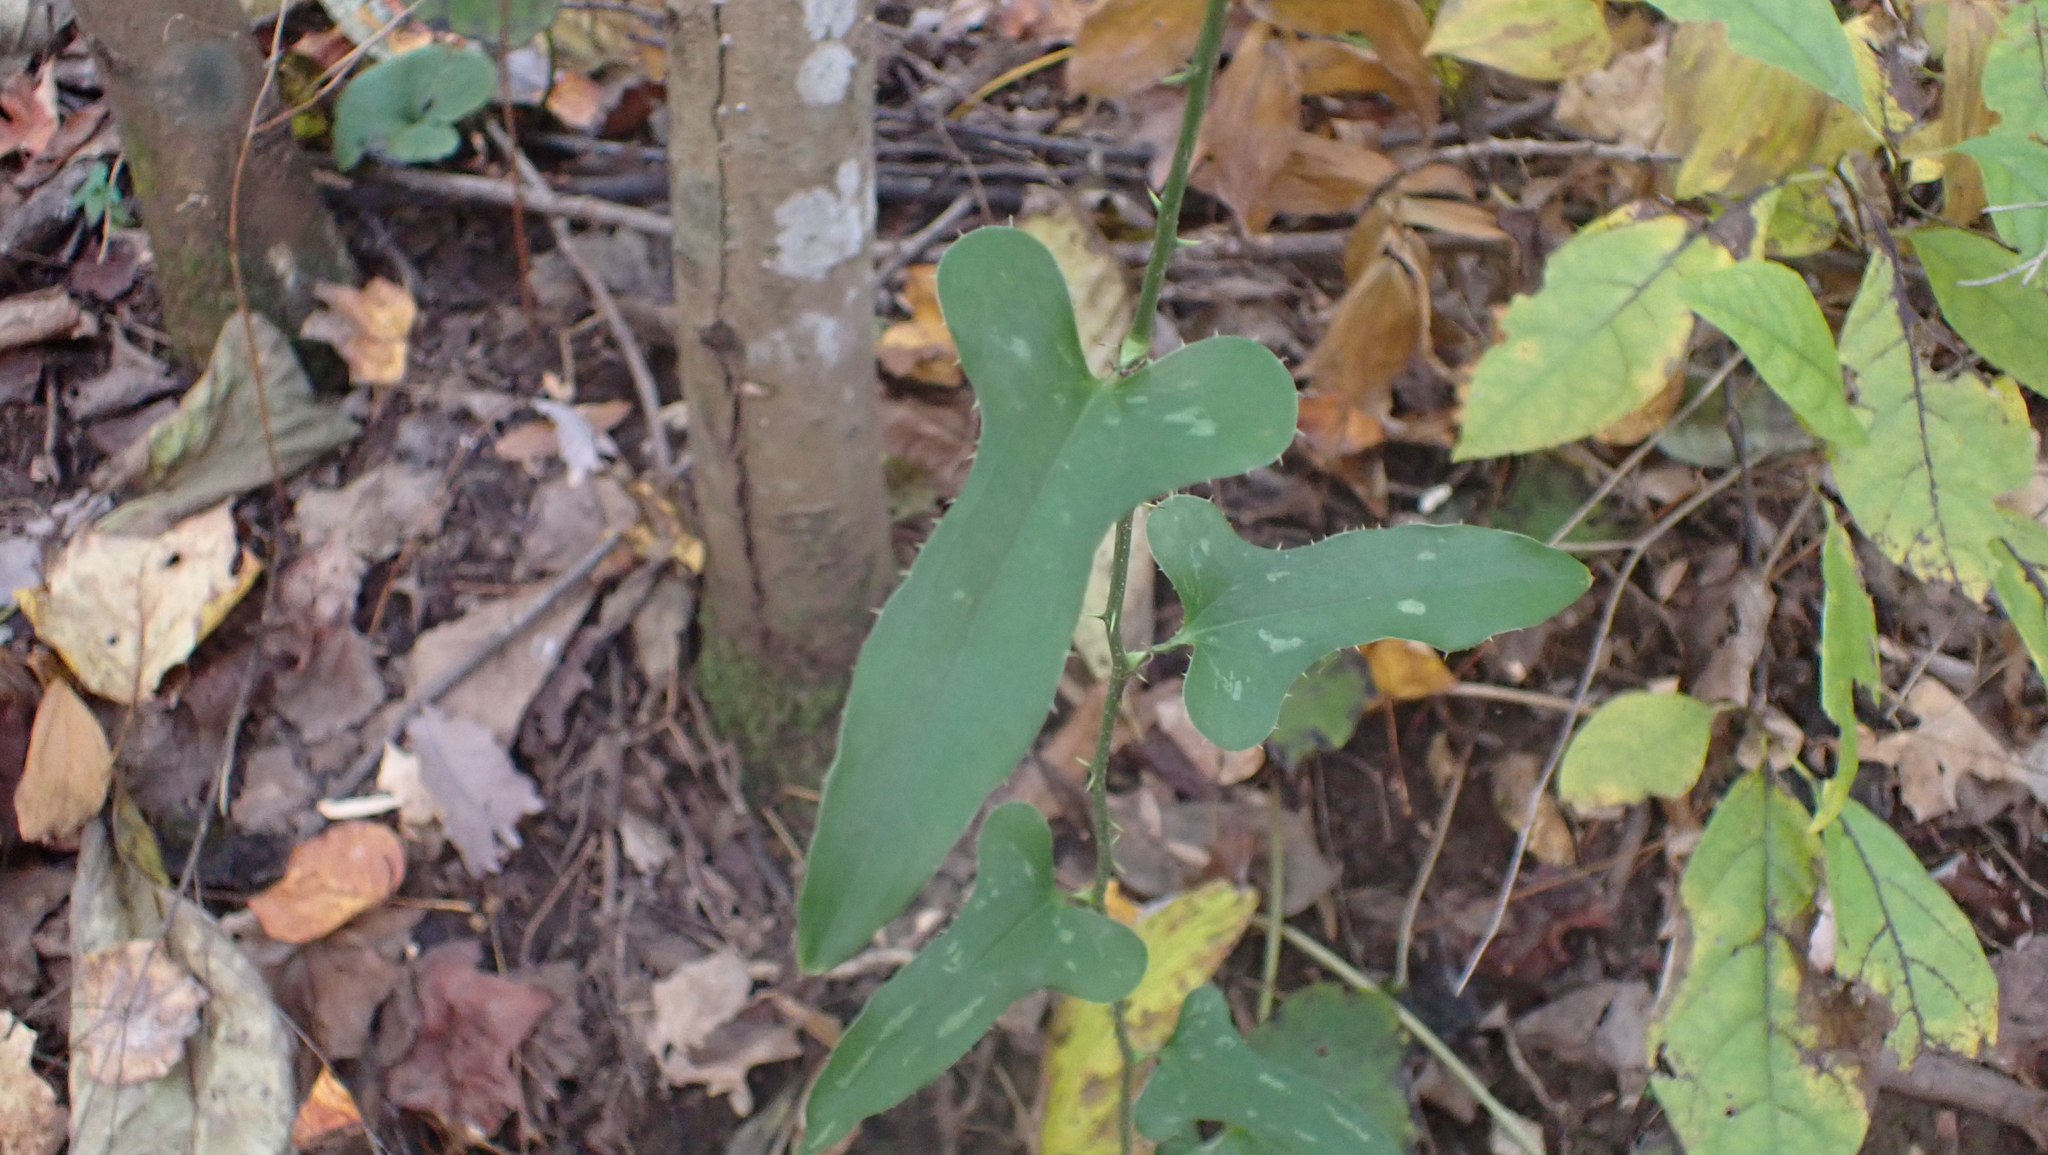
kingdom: Plantae
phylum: Tracheophyta
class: Liliopsida
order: Liliales
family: Smilacaceae
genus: Smilax
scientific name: Smilax bona-nox
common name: Catbrier
